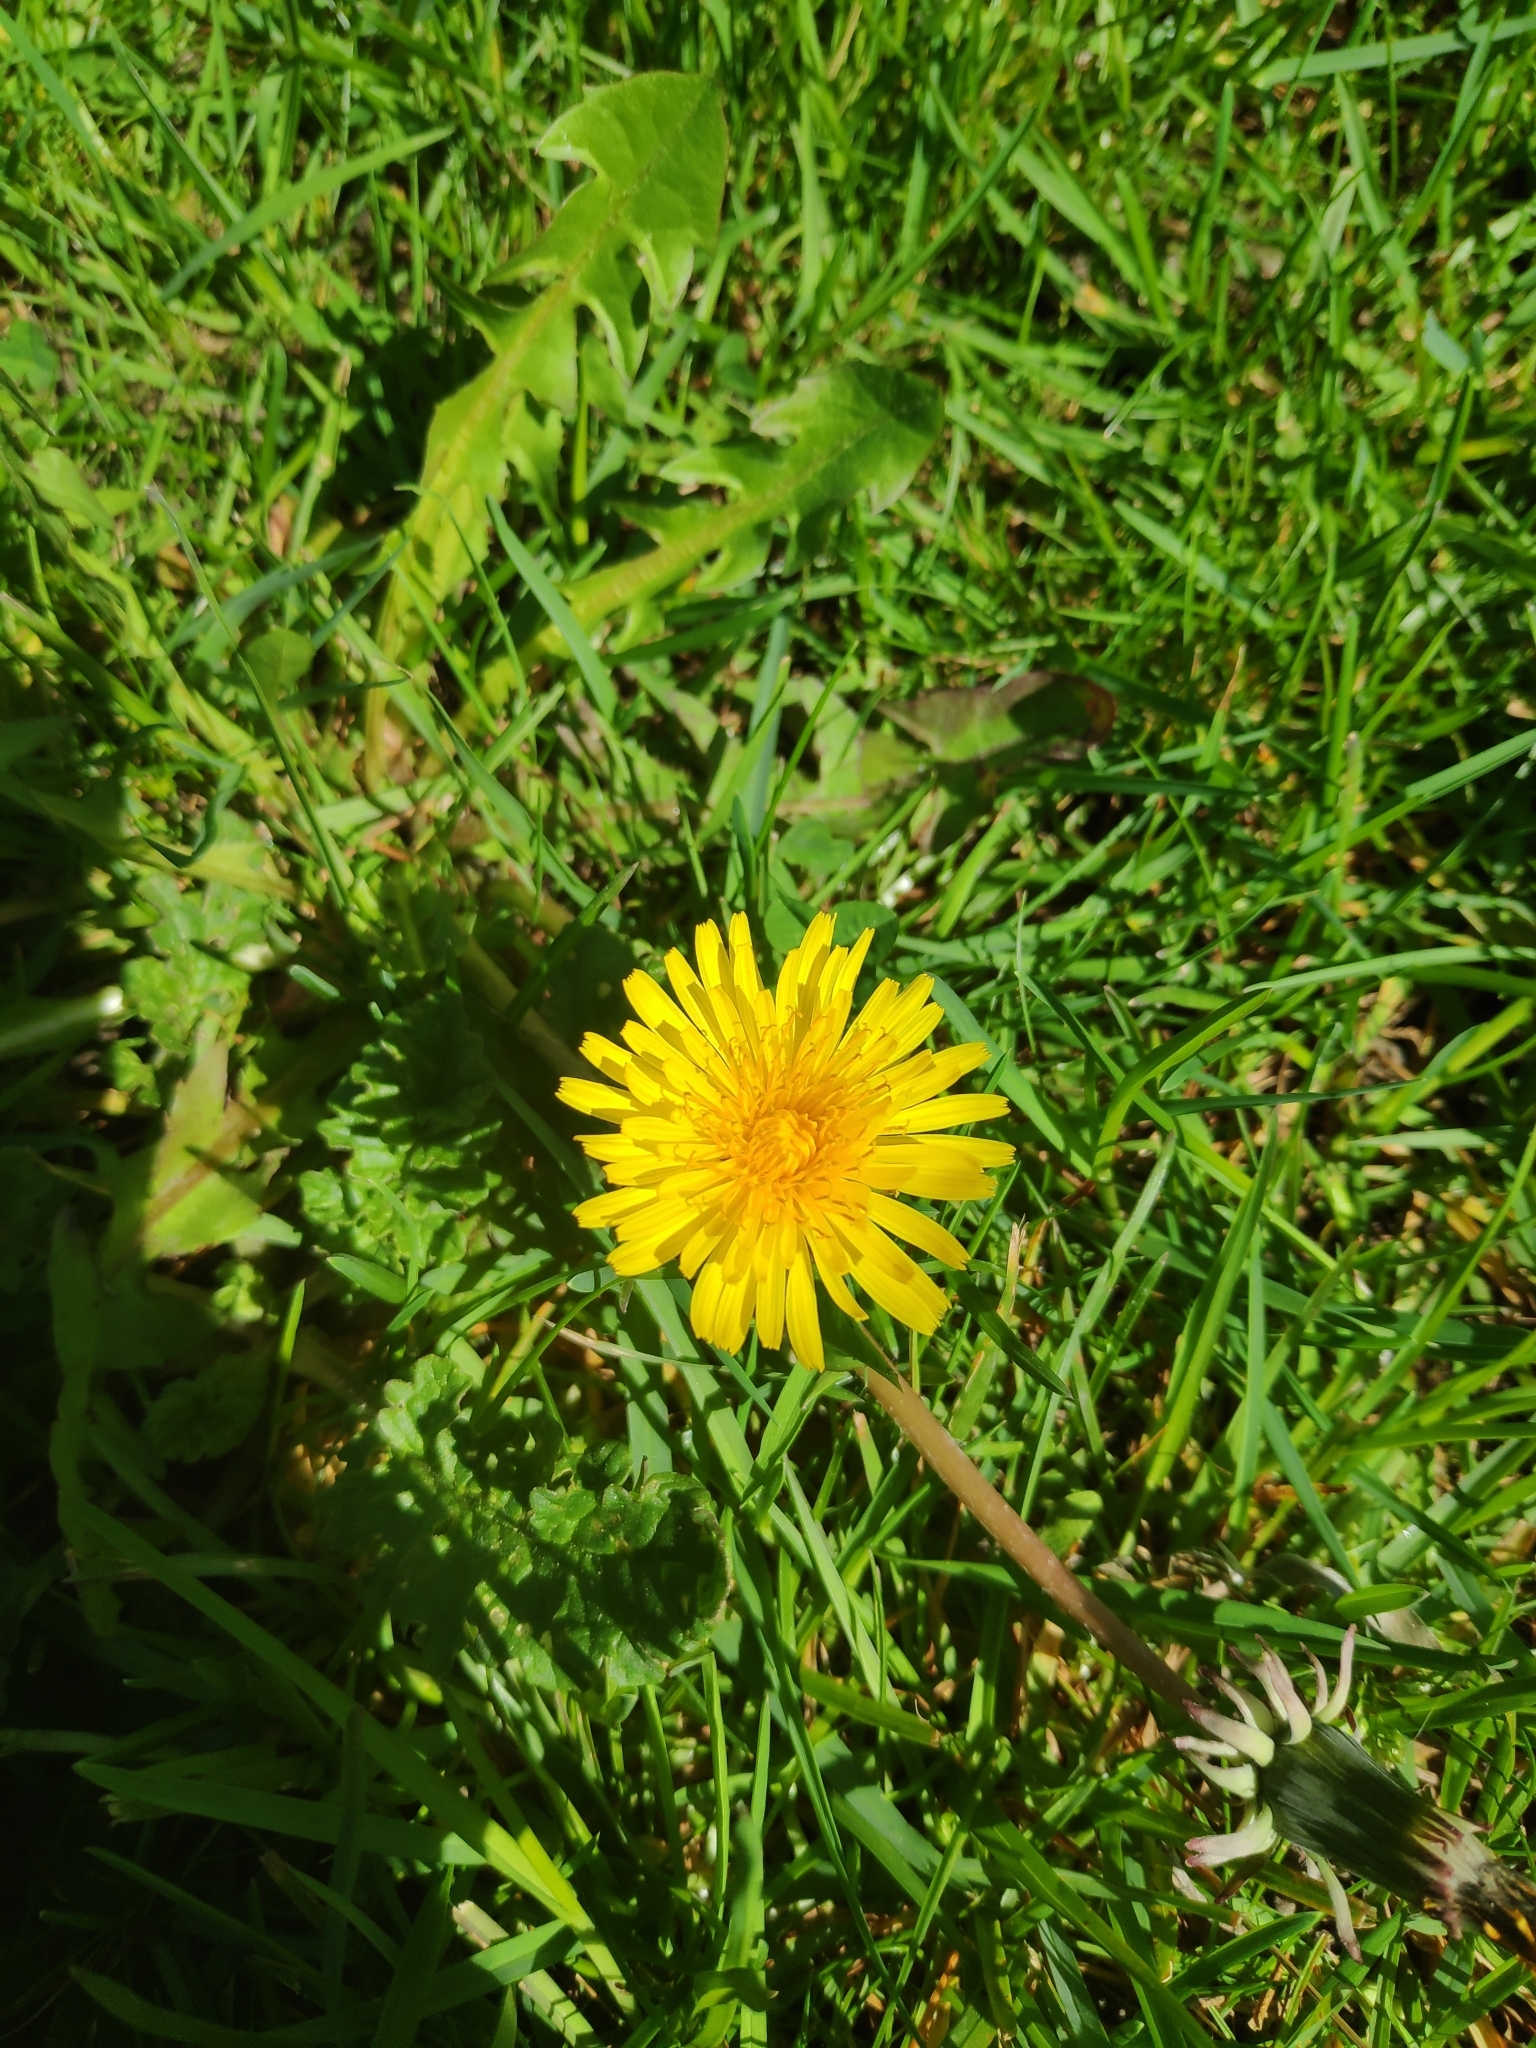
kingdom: Plantae
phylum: Tracheophyta
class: Magnoliopsida
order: Asterales
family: Asteraceae
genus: Taraxacum
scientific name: Taraxacum officinale
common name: Common dandelion
